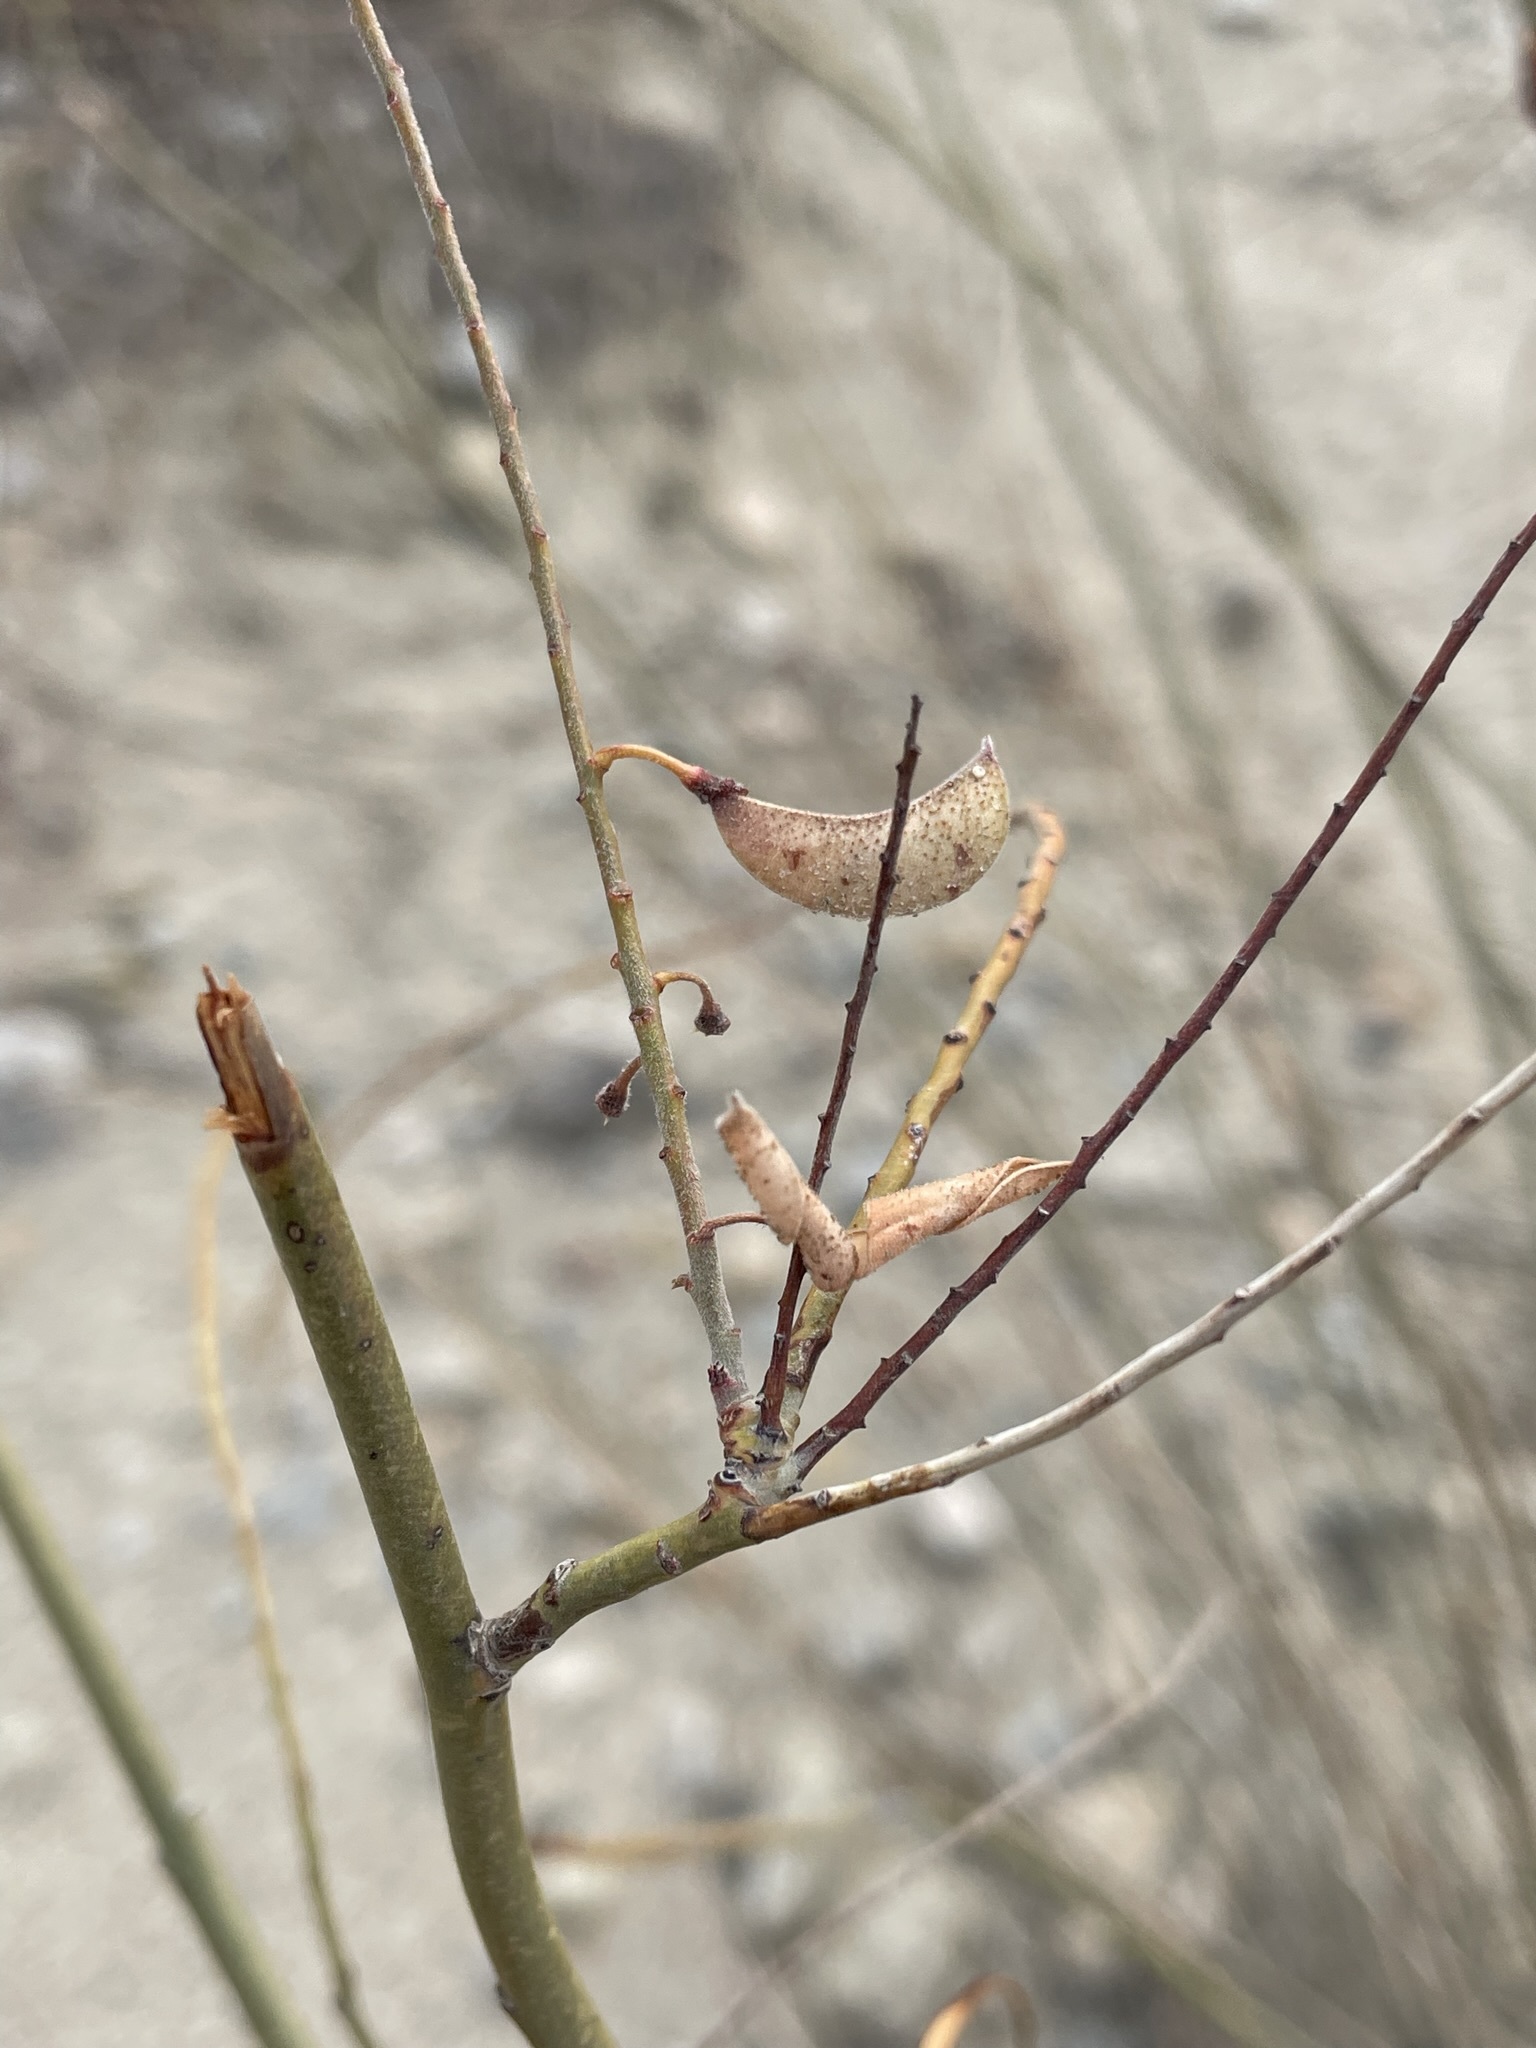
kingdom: Plantae
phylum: Tracheophyta
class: Magnoliopsida
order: Fabales
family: Fabaceae
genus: Hoffmannseggia
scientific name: Hoffmannseggia microphylla
